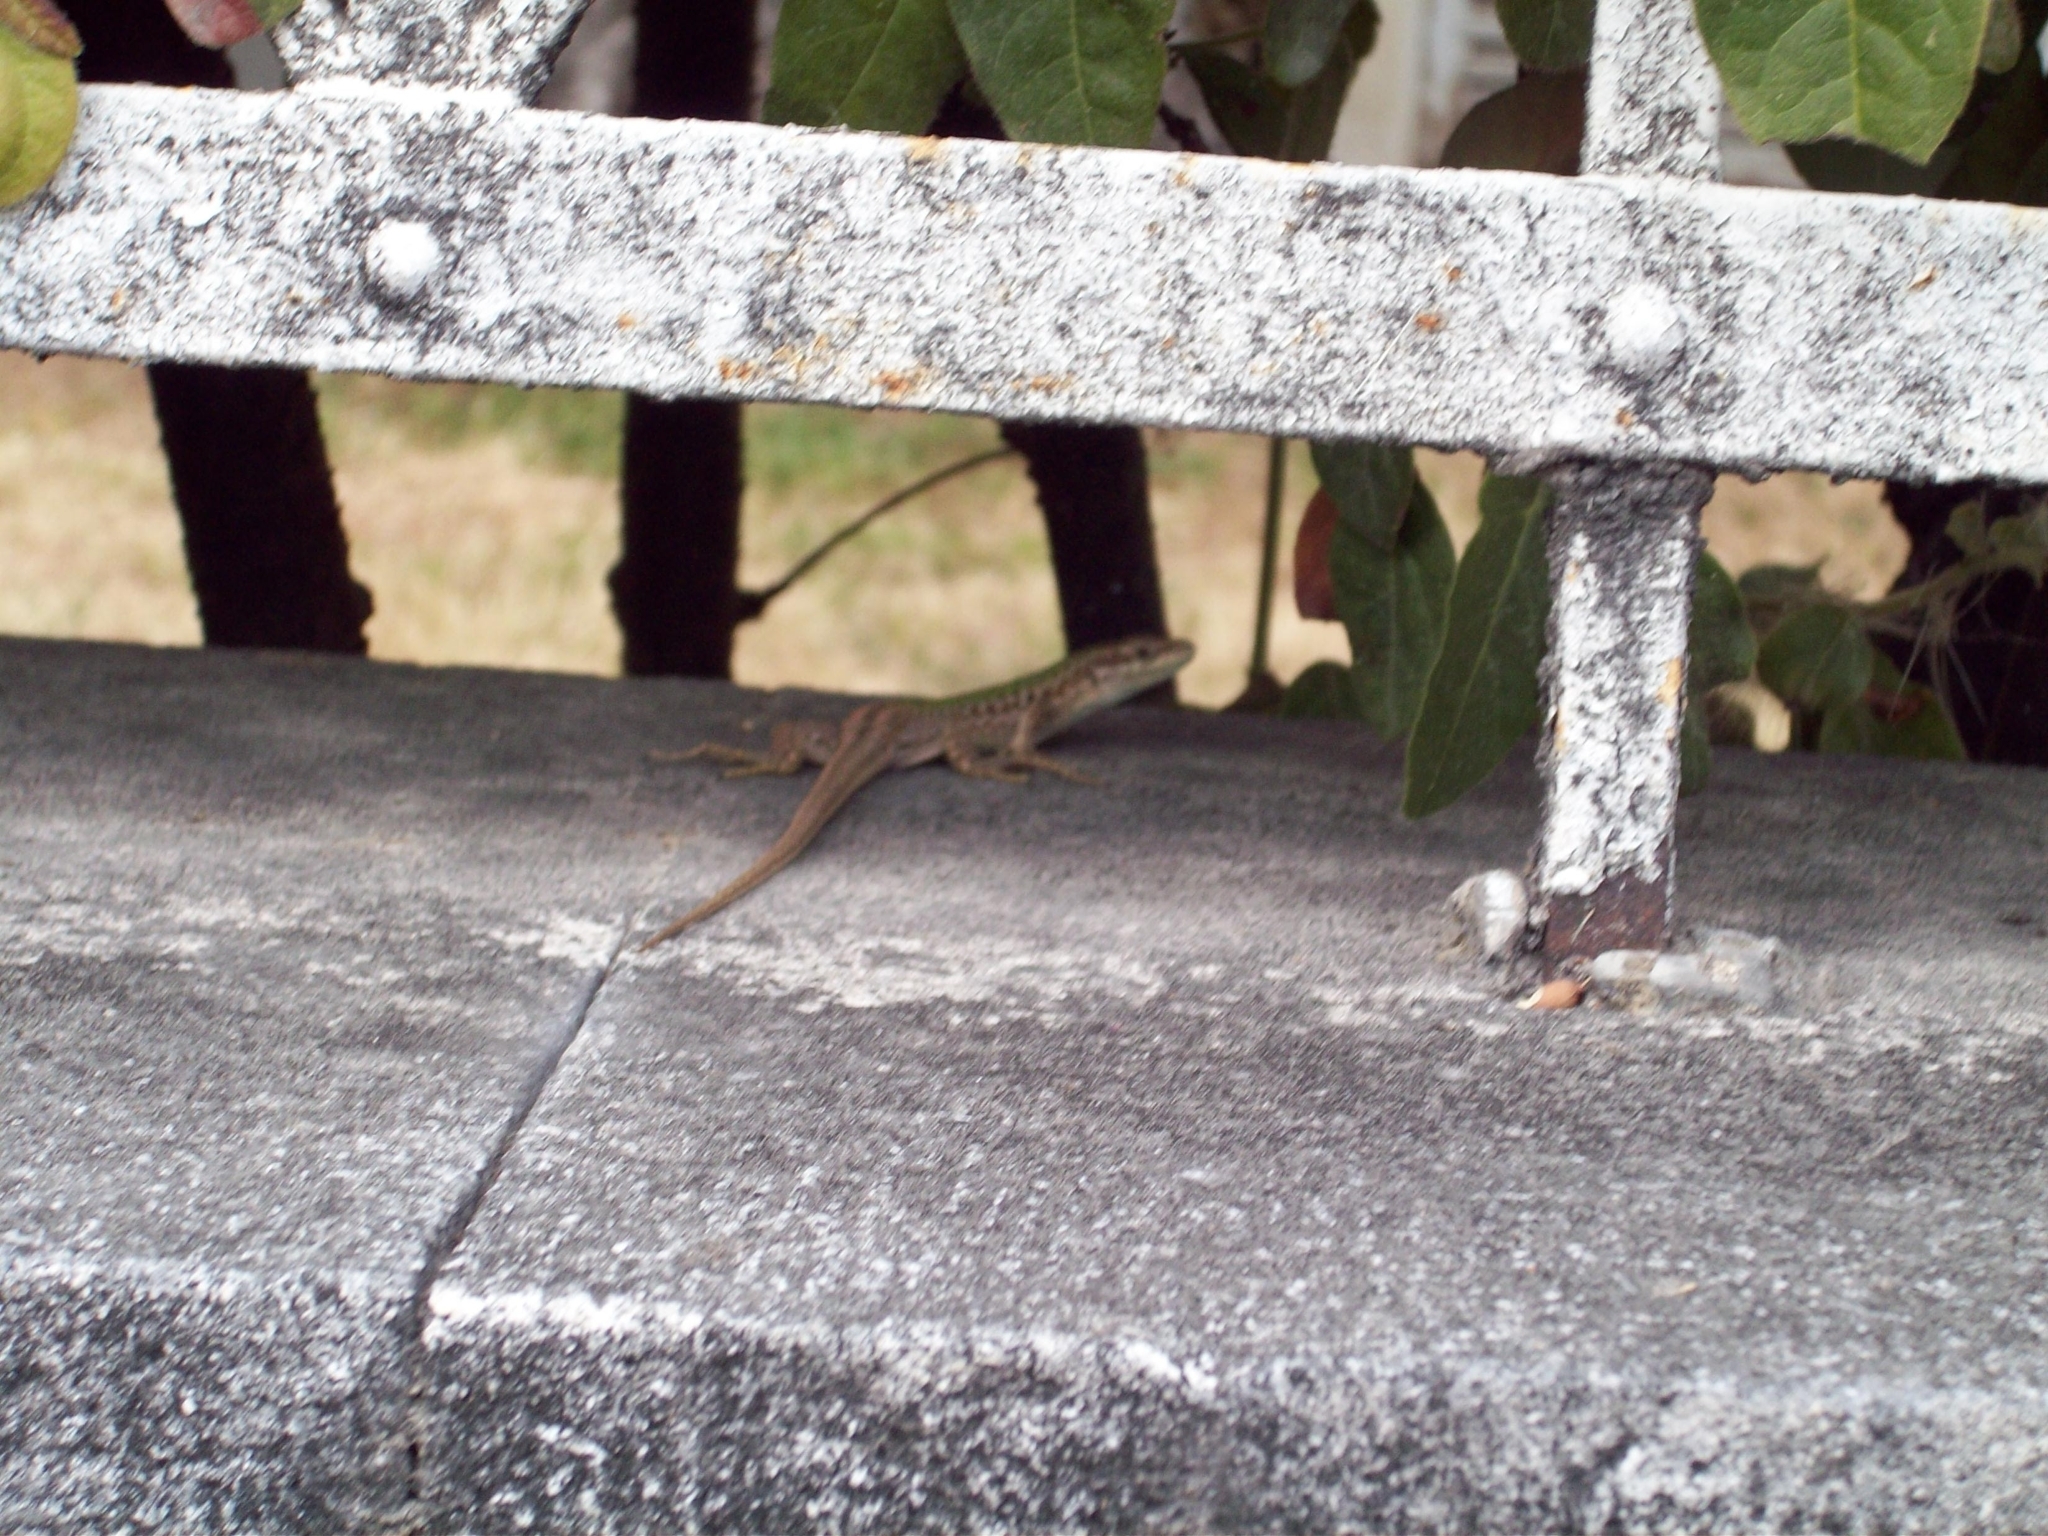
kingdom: Animalia
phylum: Chordata
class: Squamata
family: Lacertidae
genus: Podarcis
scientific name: Podarcis siculus
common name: Italian wall lizard
